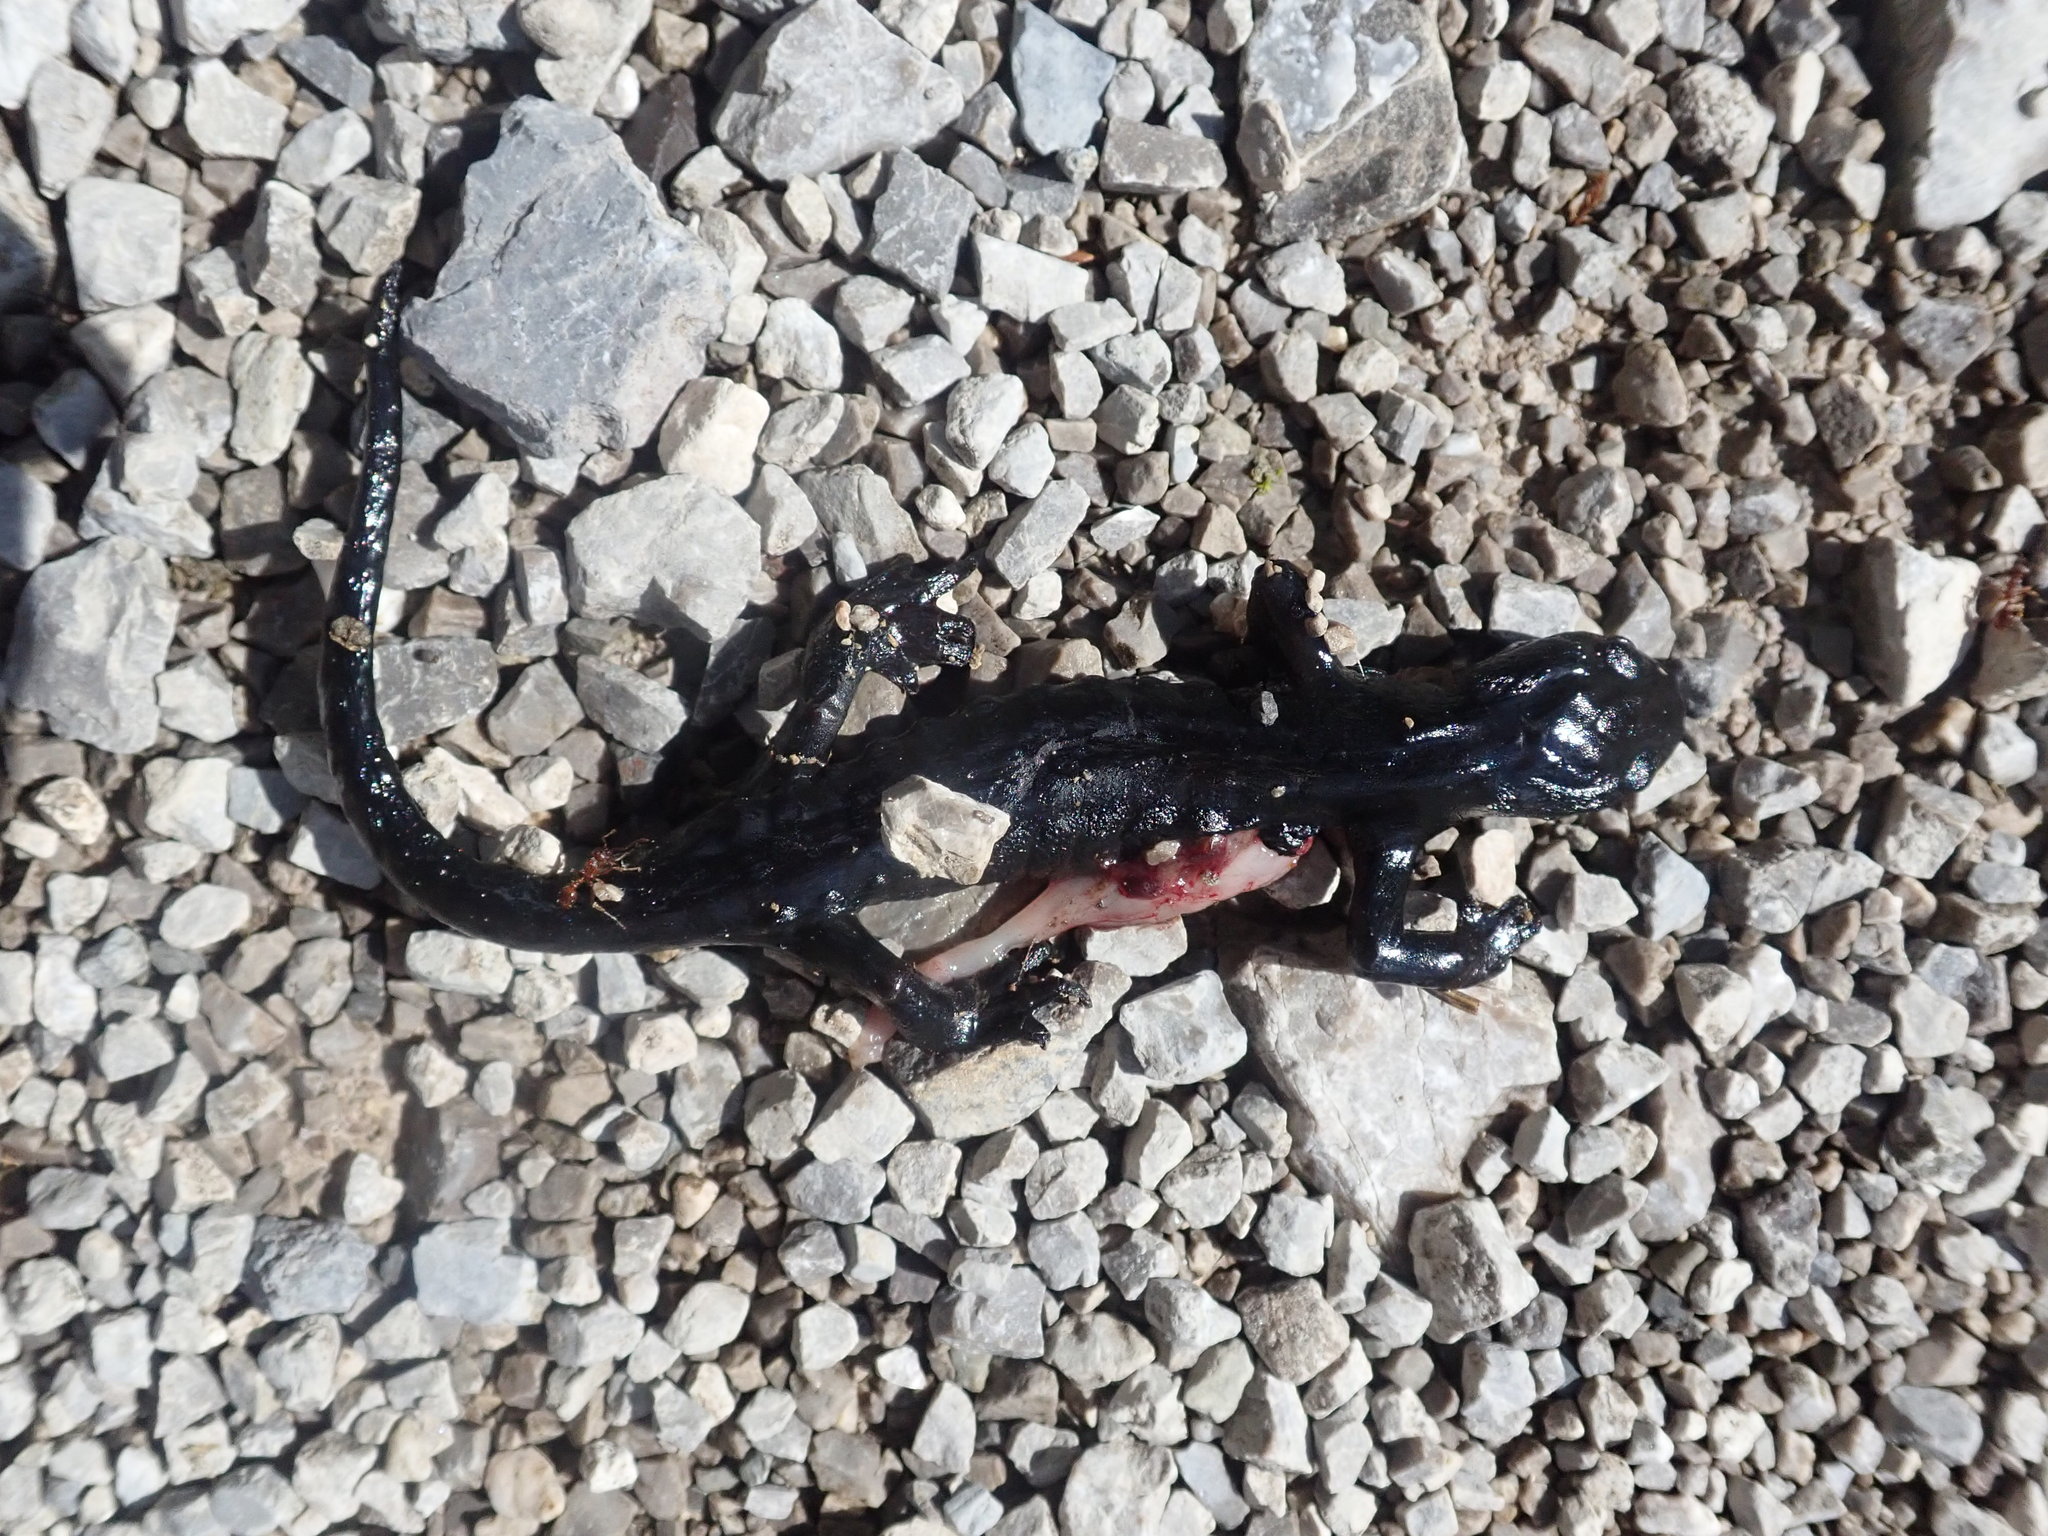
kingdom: Animalia
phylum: Chordata
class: Amphibia
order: Caudata
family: Salamandridae
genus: Salamandra
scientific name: Salamandra atra
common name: Alpine salamander
